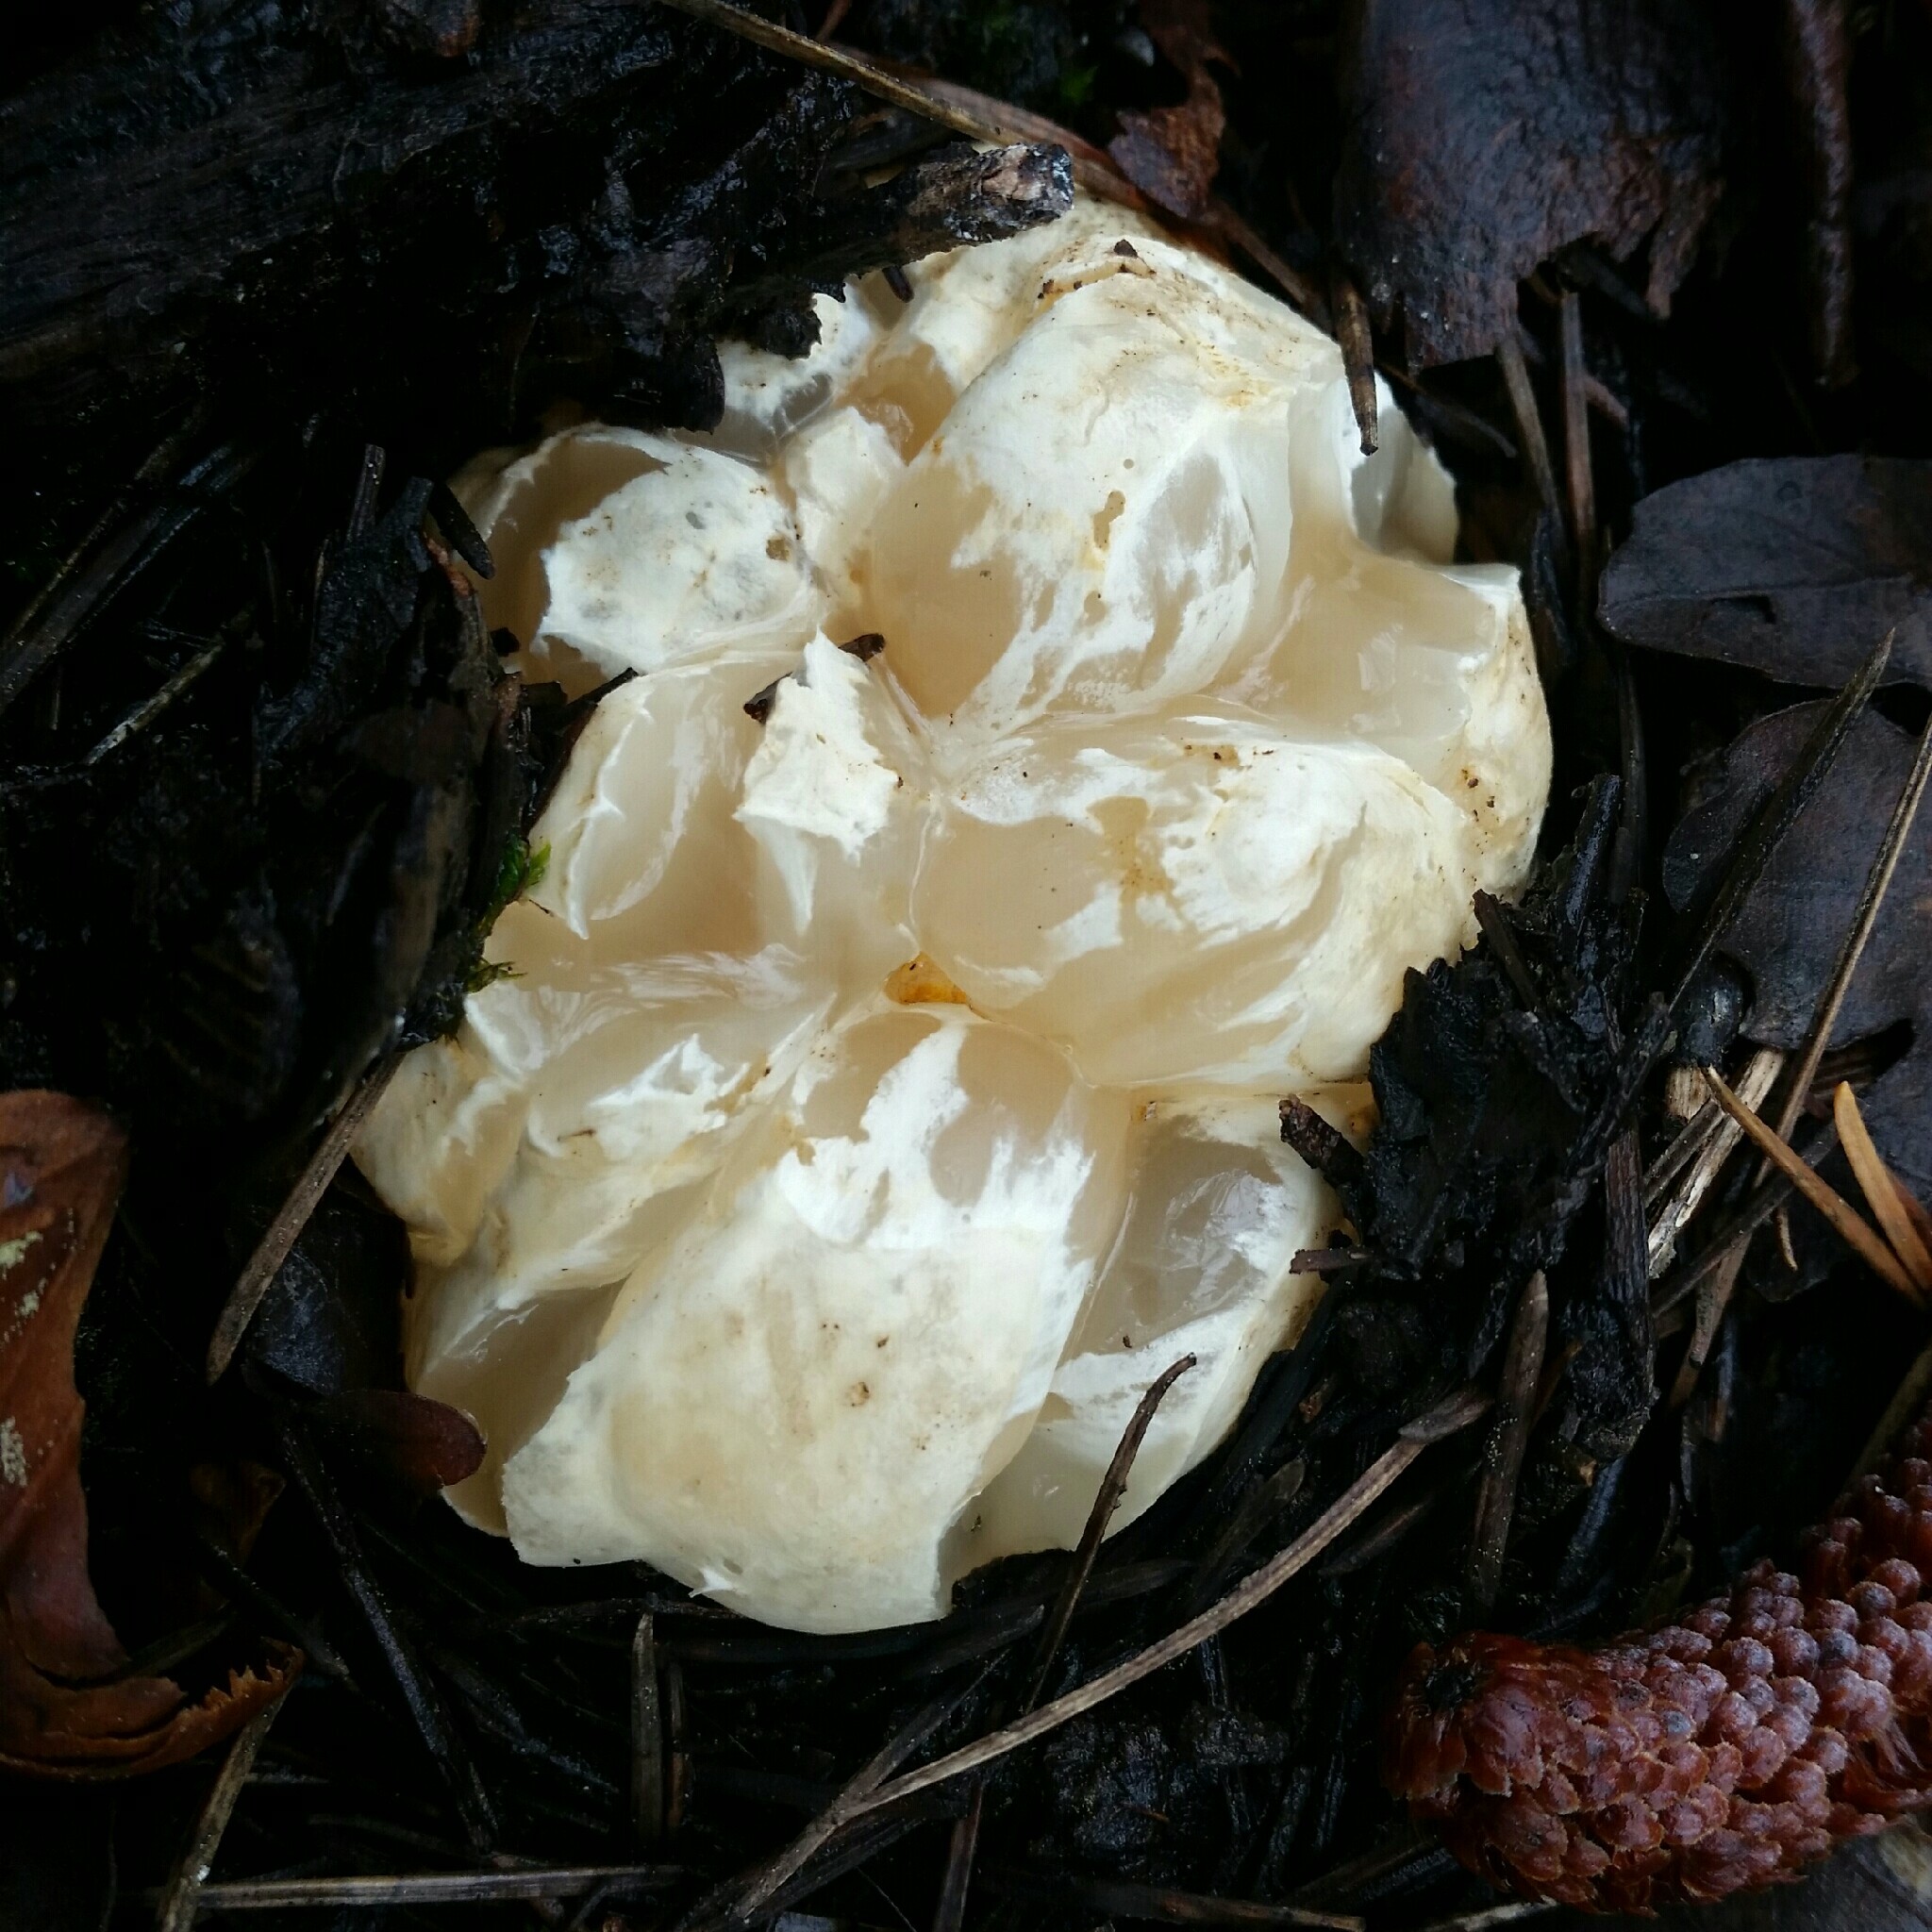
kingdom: Fungi
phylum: Basidiomycota
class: Agaricomycetes
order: Phallales
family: Phallaceae
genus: Clathrus
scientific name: Clathrus ruber
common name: Red cage
